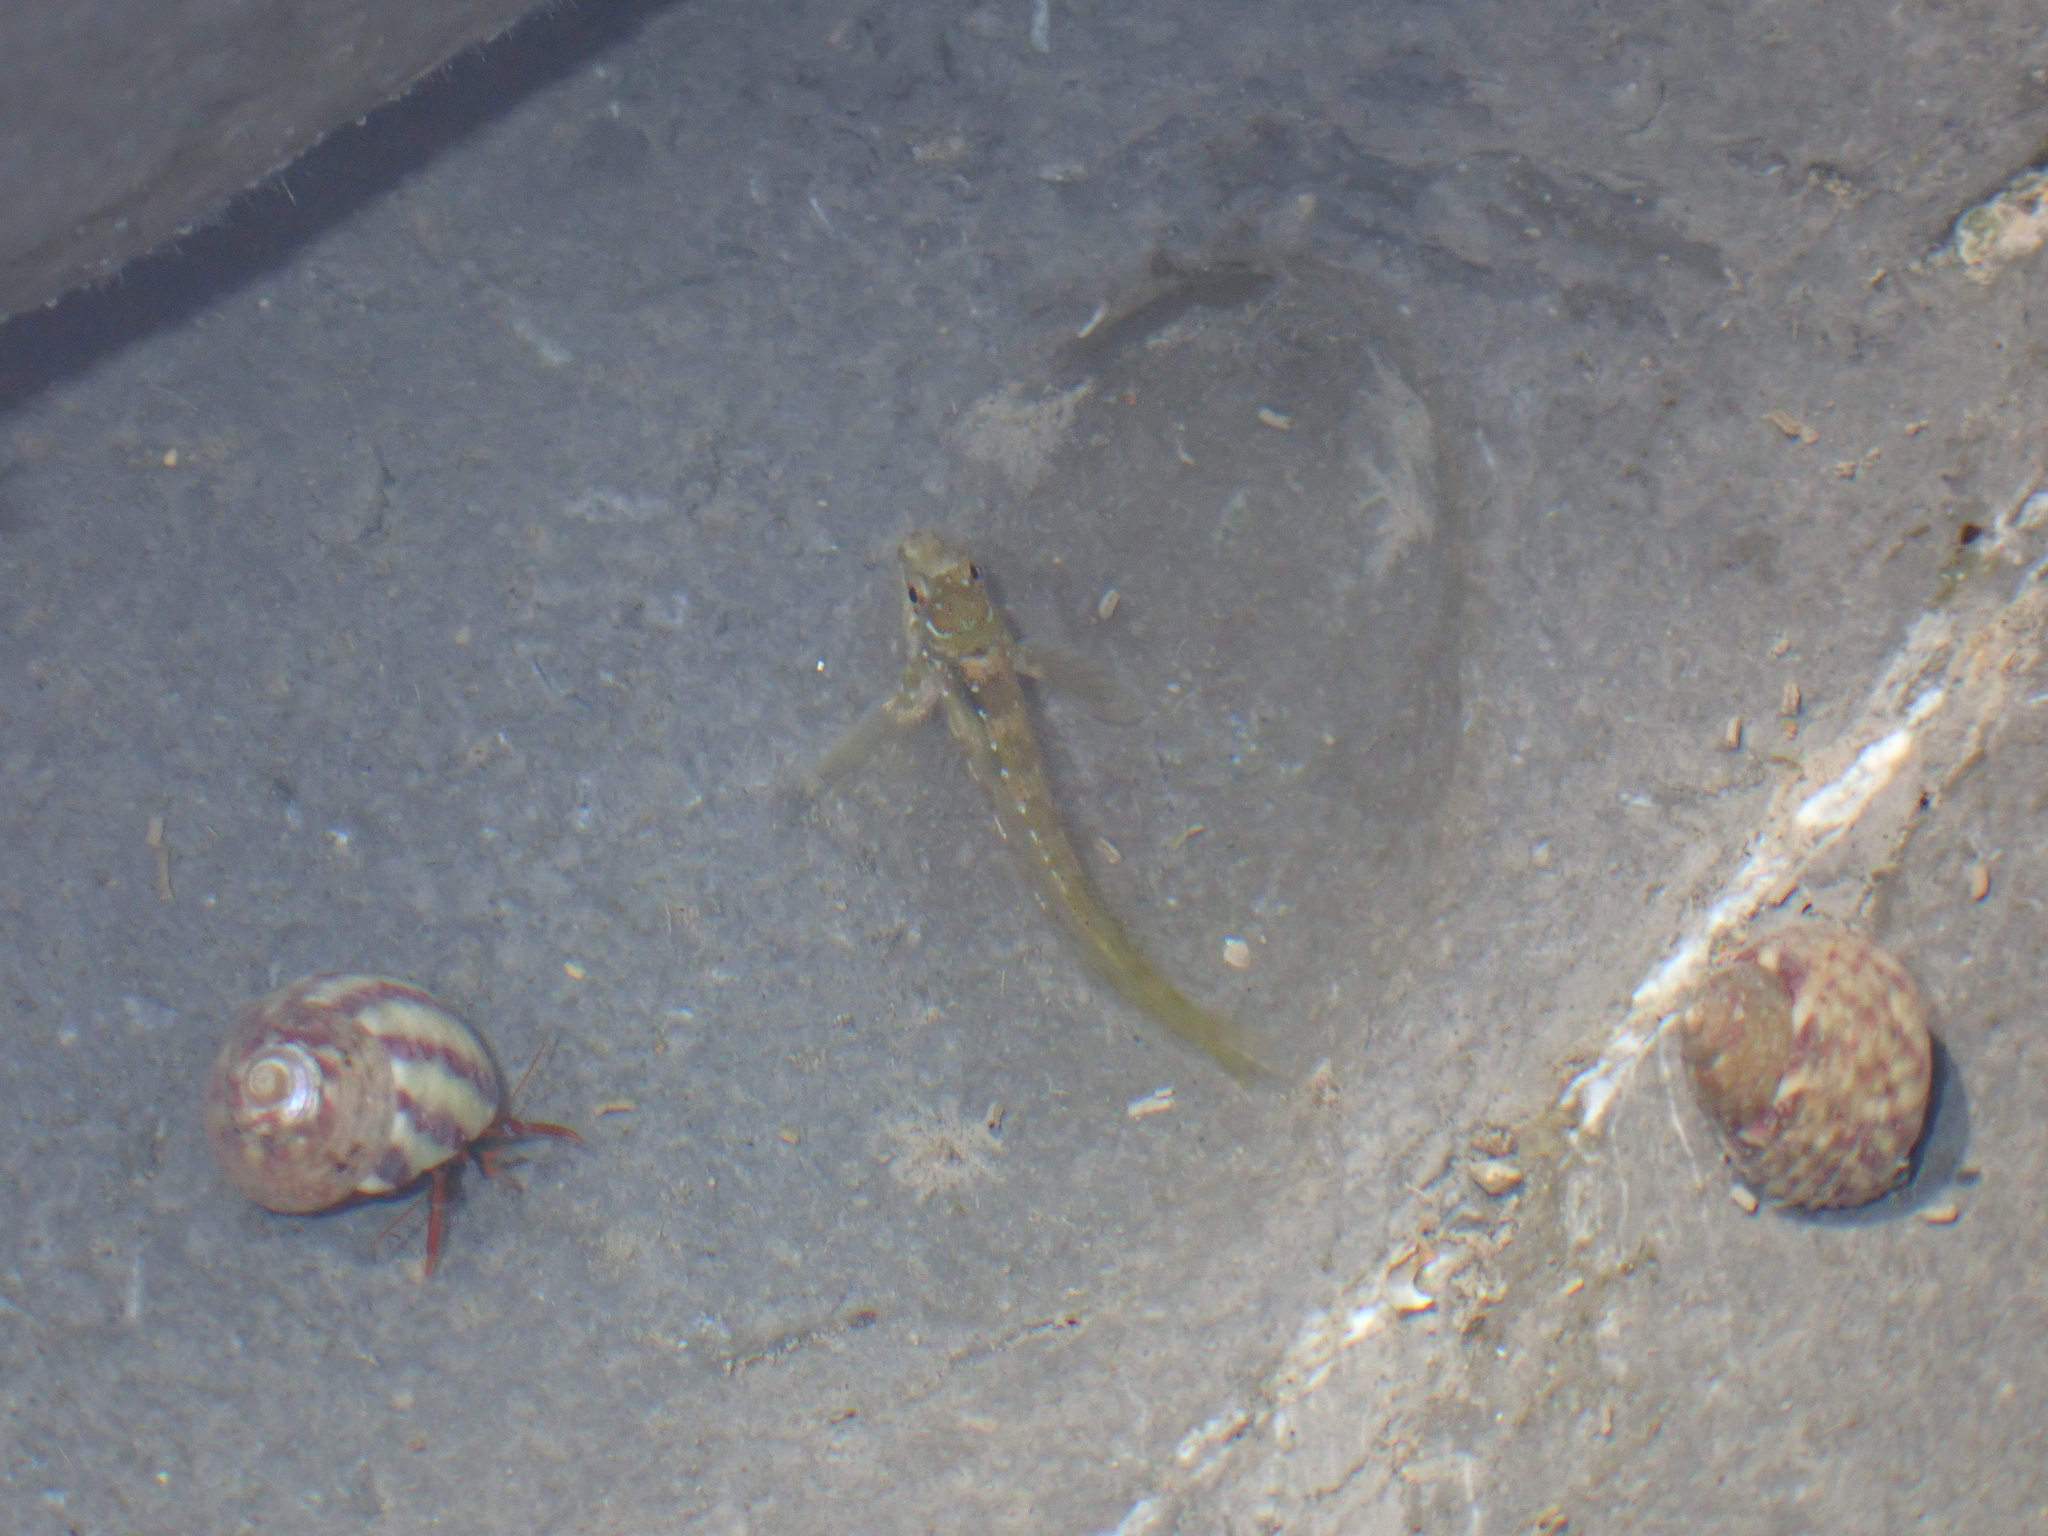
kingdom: Animalia
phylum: Chordata
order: Perciformes
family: Blenniidae
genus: Lipophrys
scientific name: Lipophrys pholis
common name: Shanny
